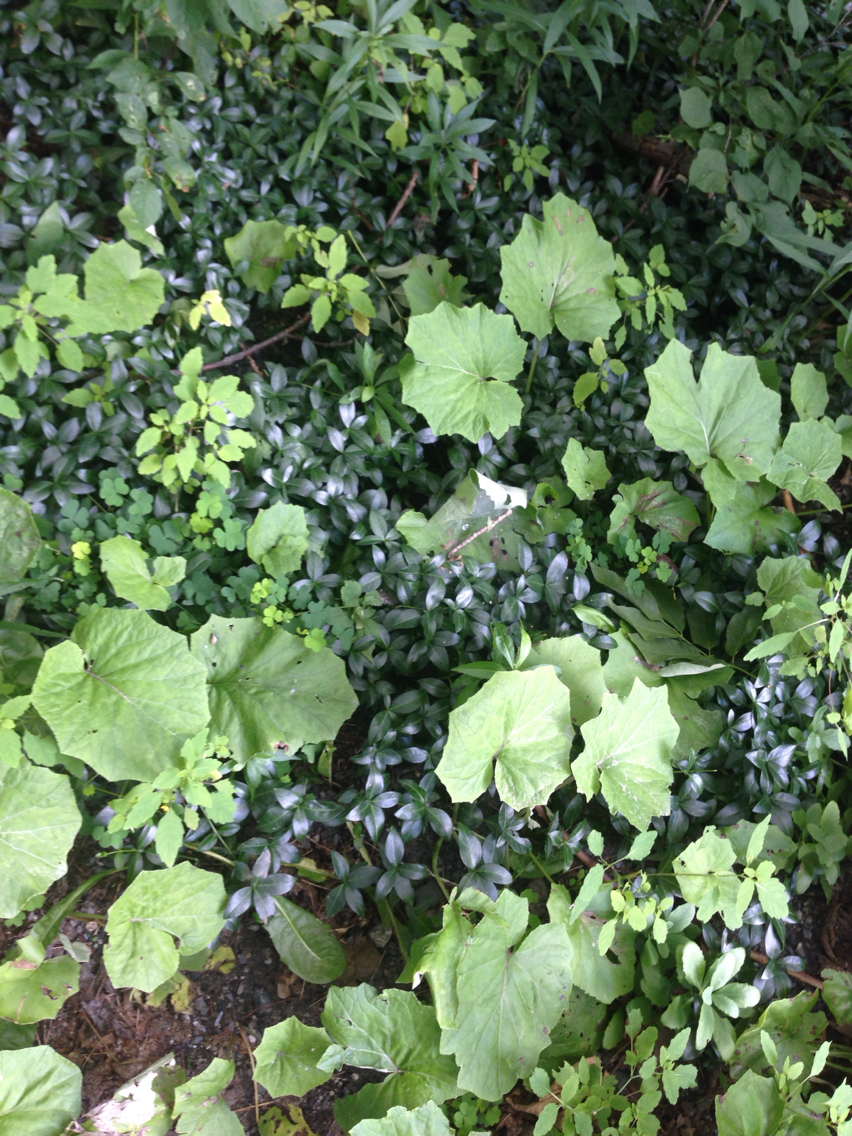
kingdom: Plantae
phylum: Tracheophyta
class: Magnoliopsida
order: Gentianales
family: Apocynaceae
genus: Vinca
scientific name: Vinca minor
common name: Lesser periwinkle
